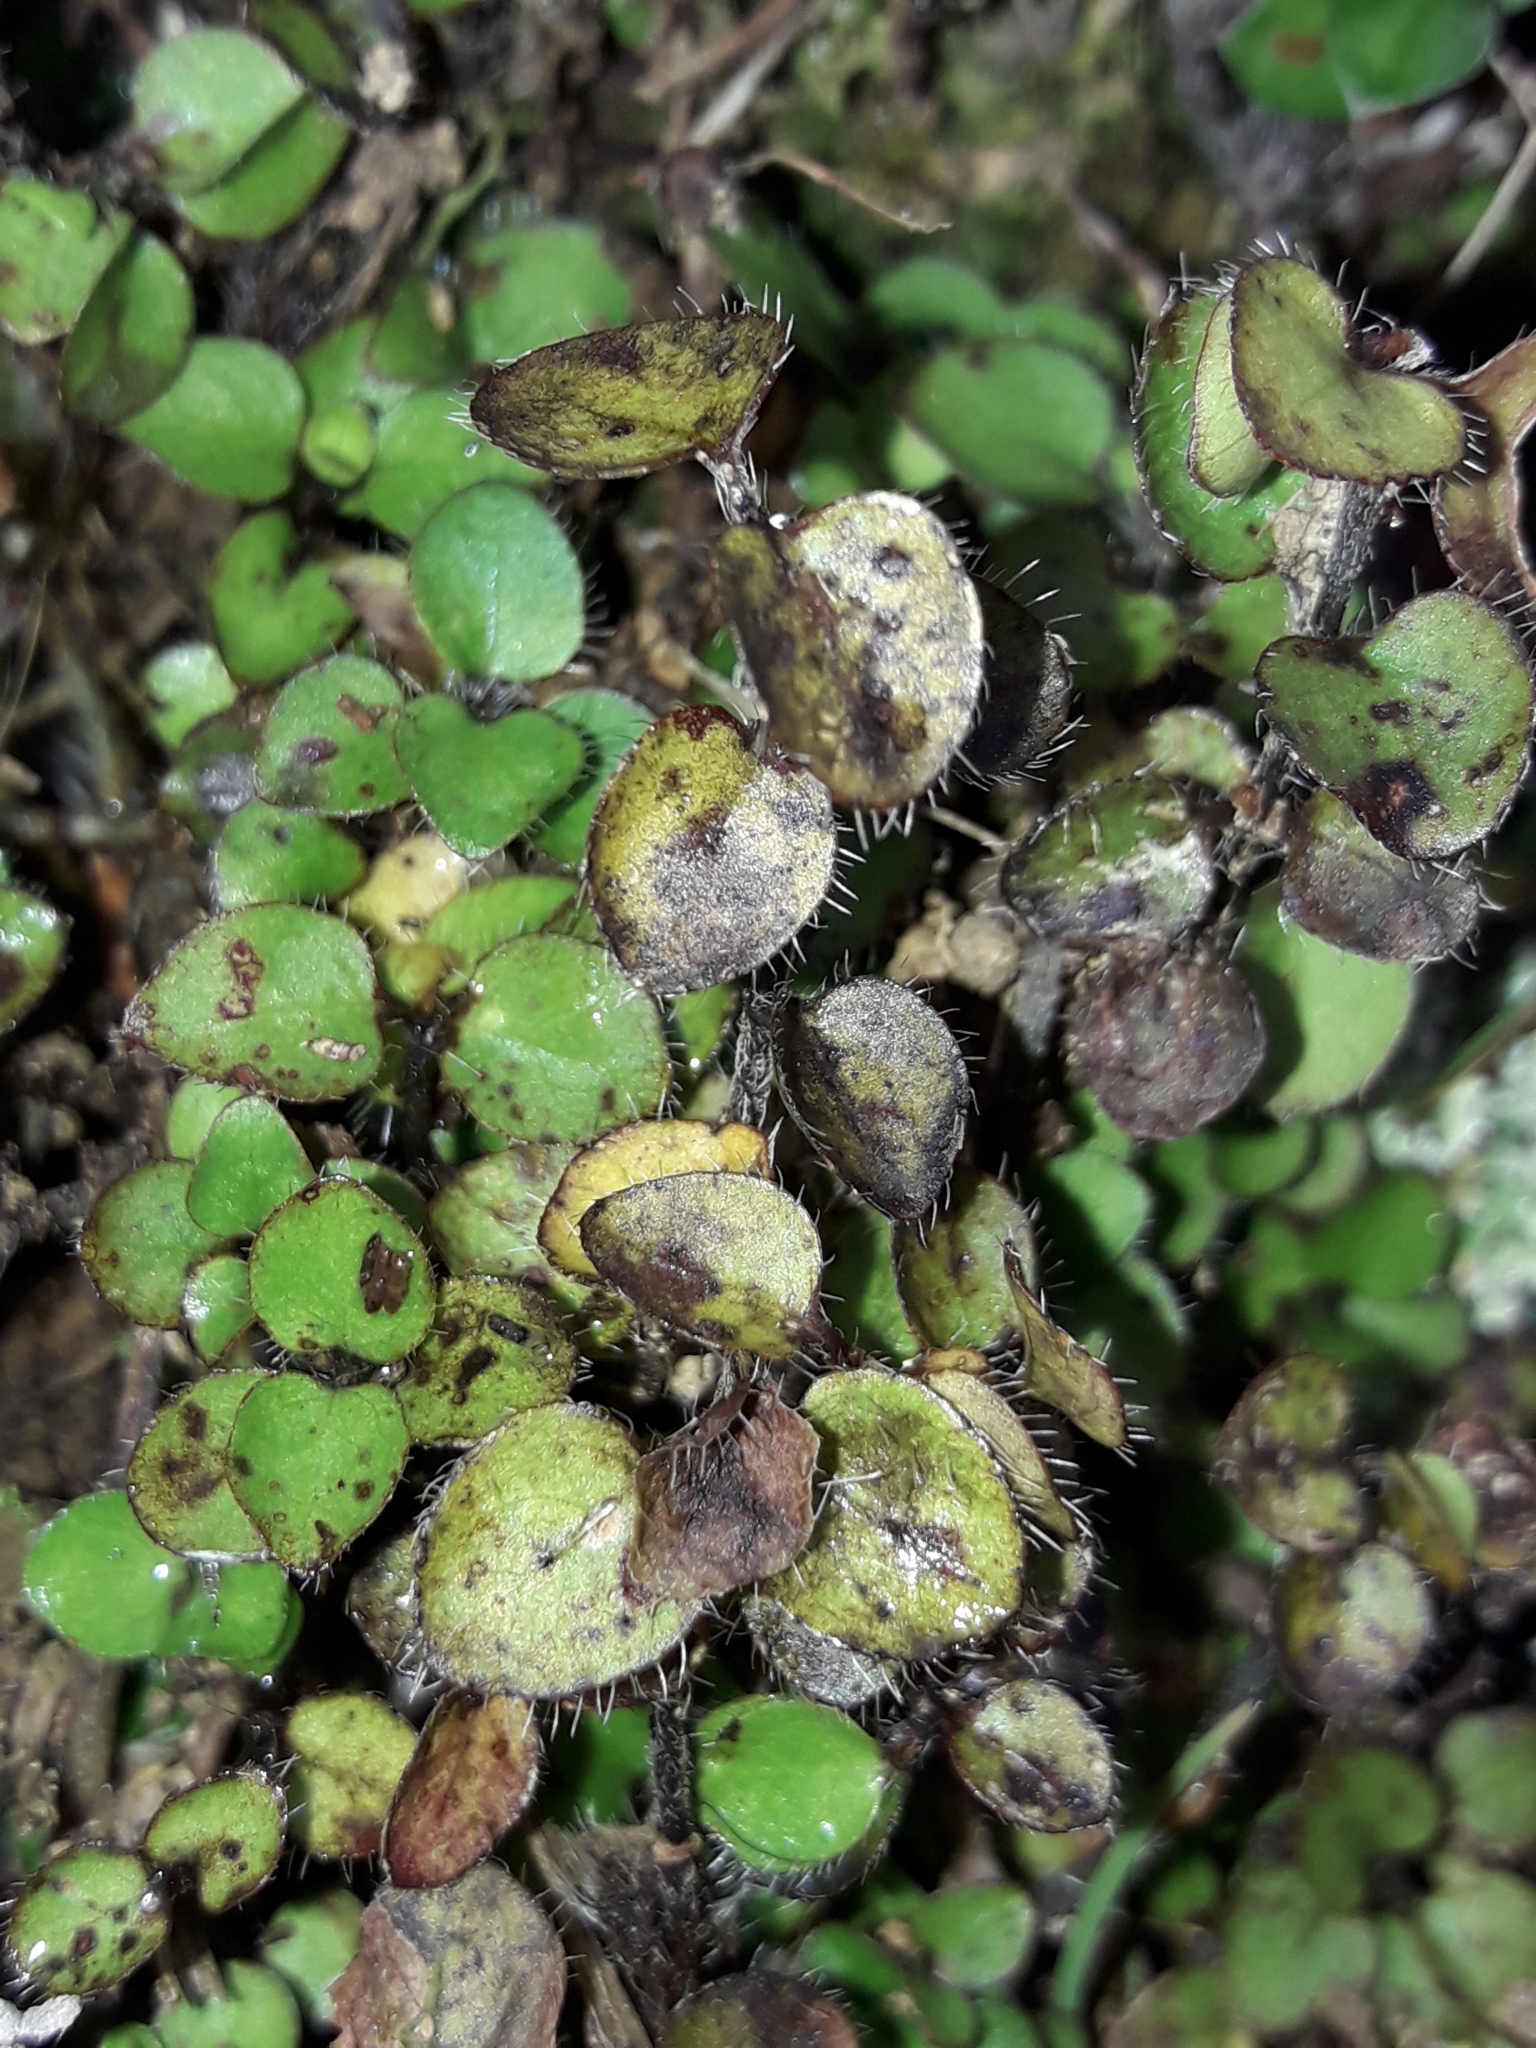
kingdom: Plantae
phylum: Tracheophyta
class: Magnoliopsida
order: Gentianales
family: Rubiaceae
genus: Leptostigma
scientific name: Leptostigma setulosum
